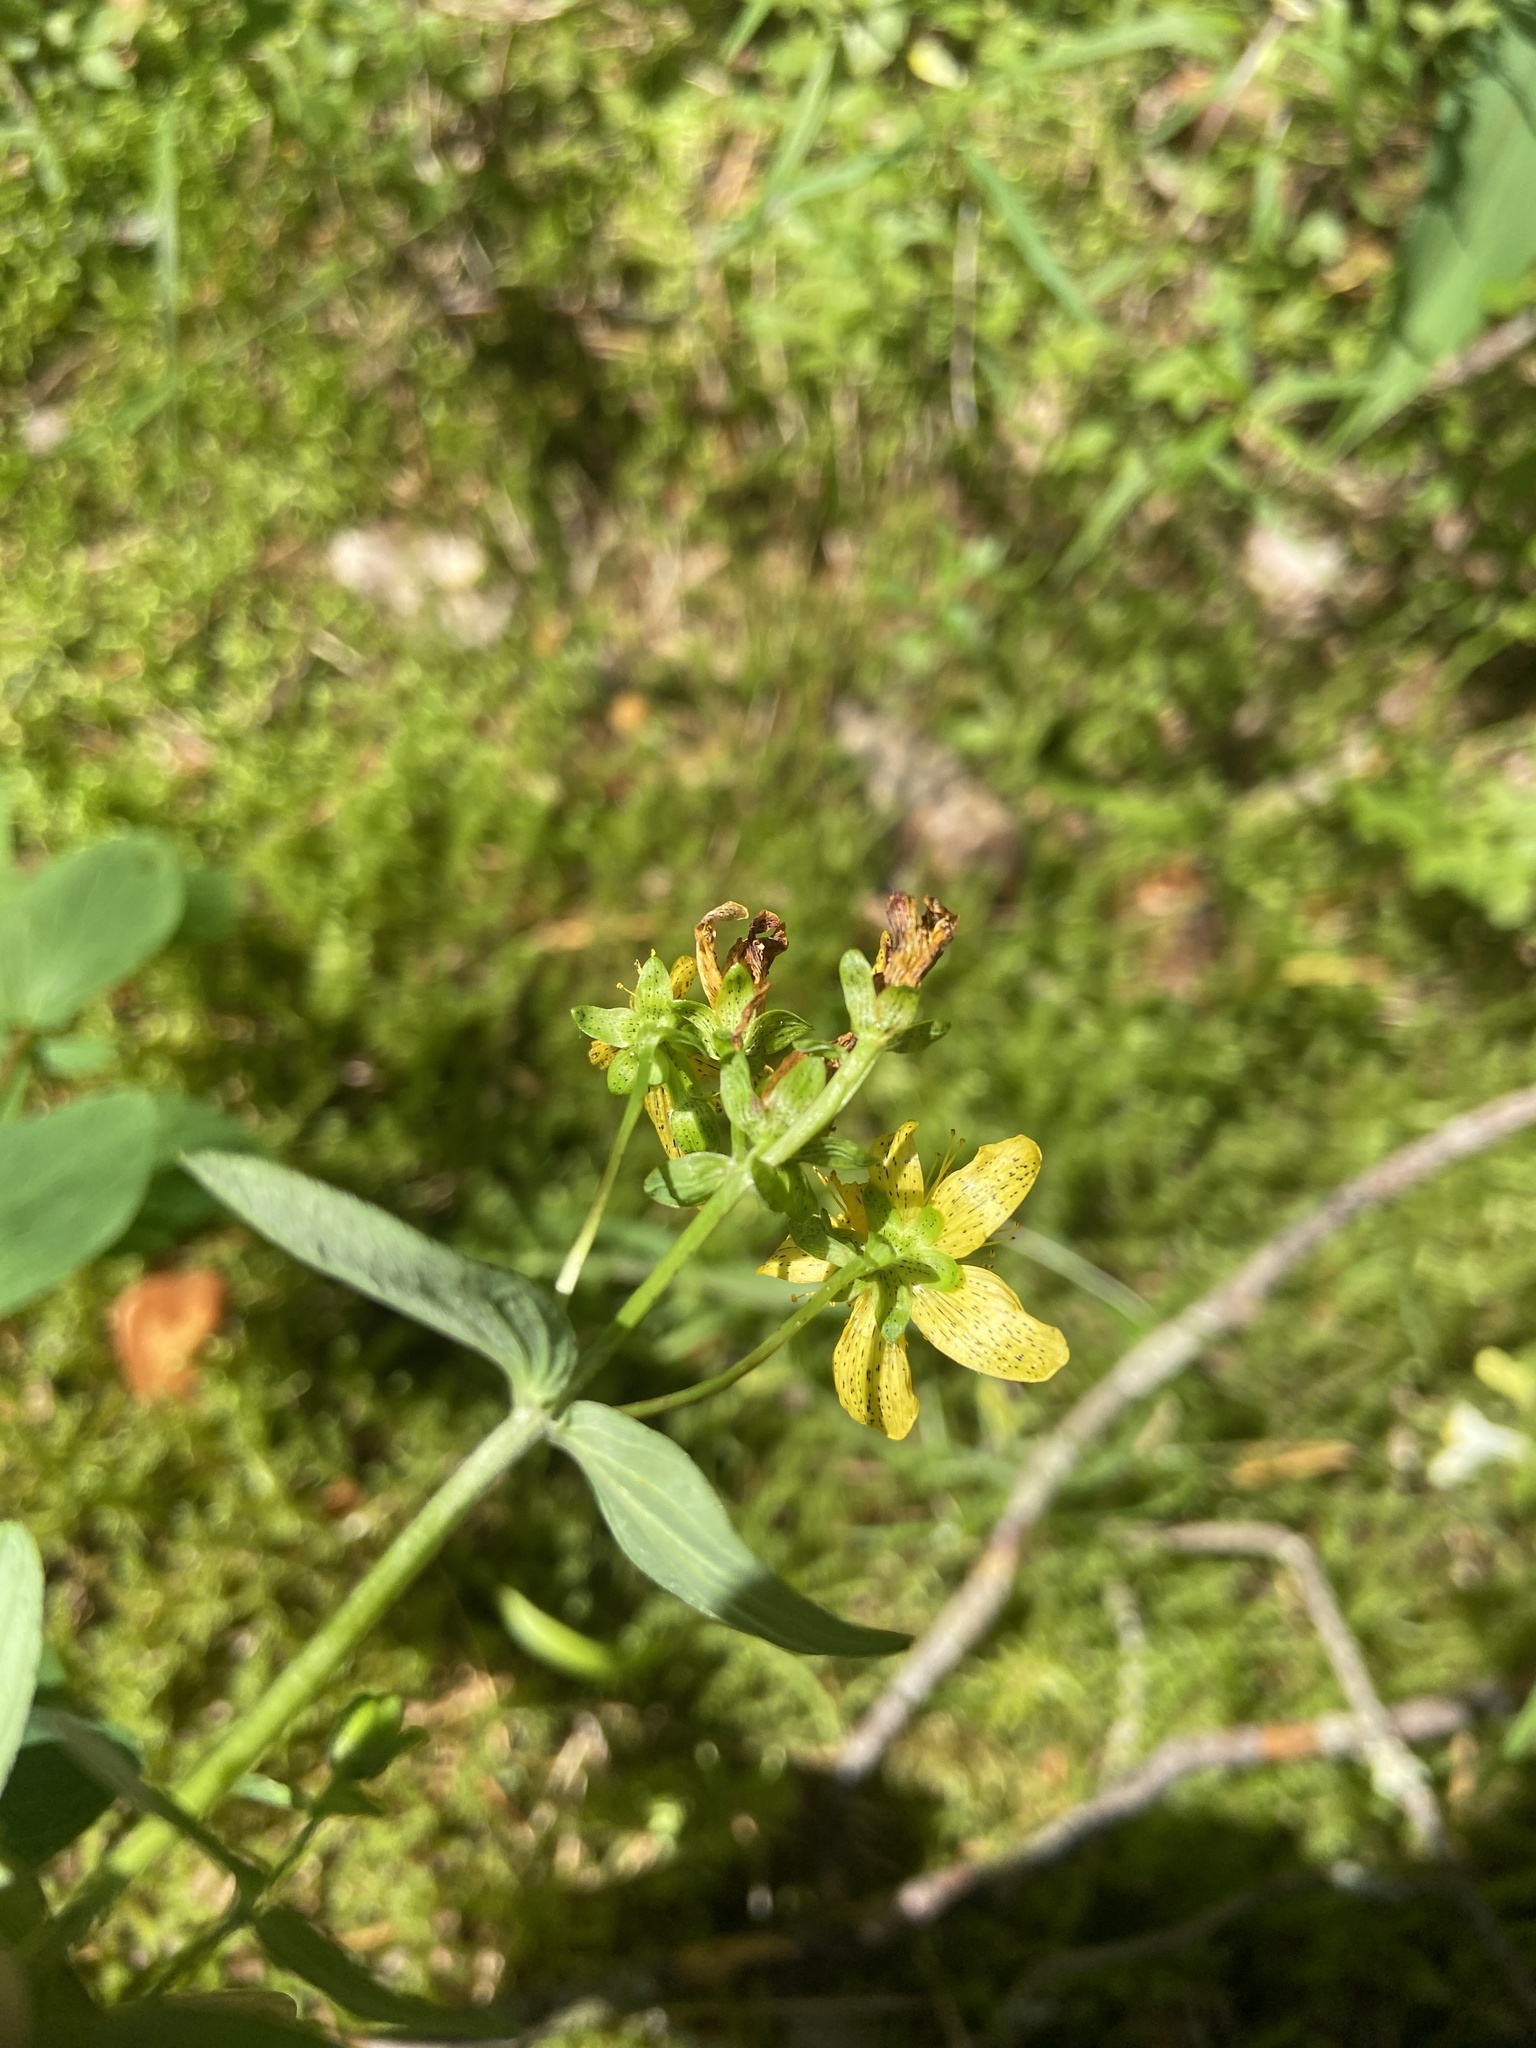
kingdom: Plantae
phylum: Tracheophyta
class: Magnoliopsida
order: Malpighiales
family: Hypericaceae
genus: Hypericum
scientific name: Hypericum maculatum
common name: Imperforate st. john's-wort
